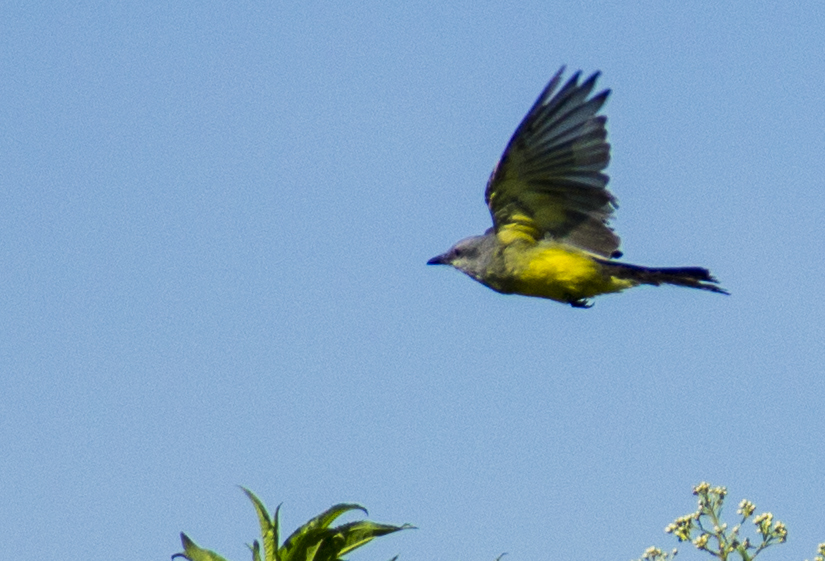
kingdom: Animalia
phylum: Chordata
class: Aves
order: Passeriformes
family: Tyrannidae
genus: Tyrannus
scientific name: Tyrannus melancholicus
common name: Tropical kingbird
